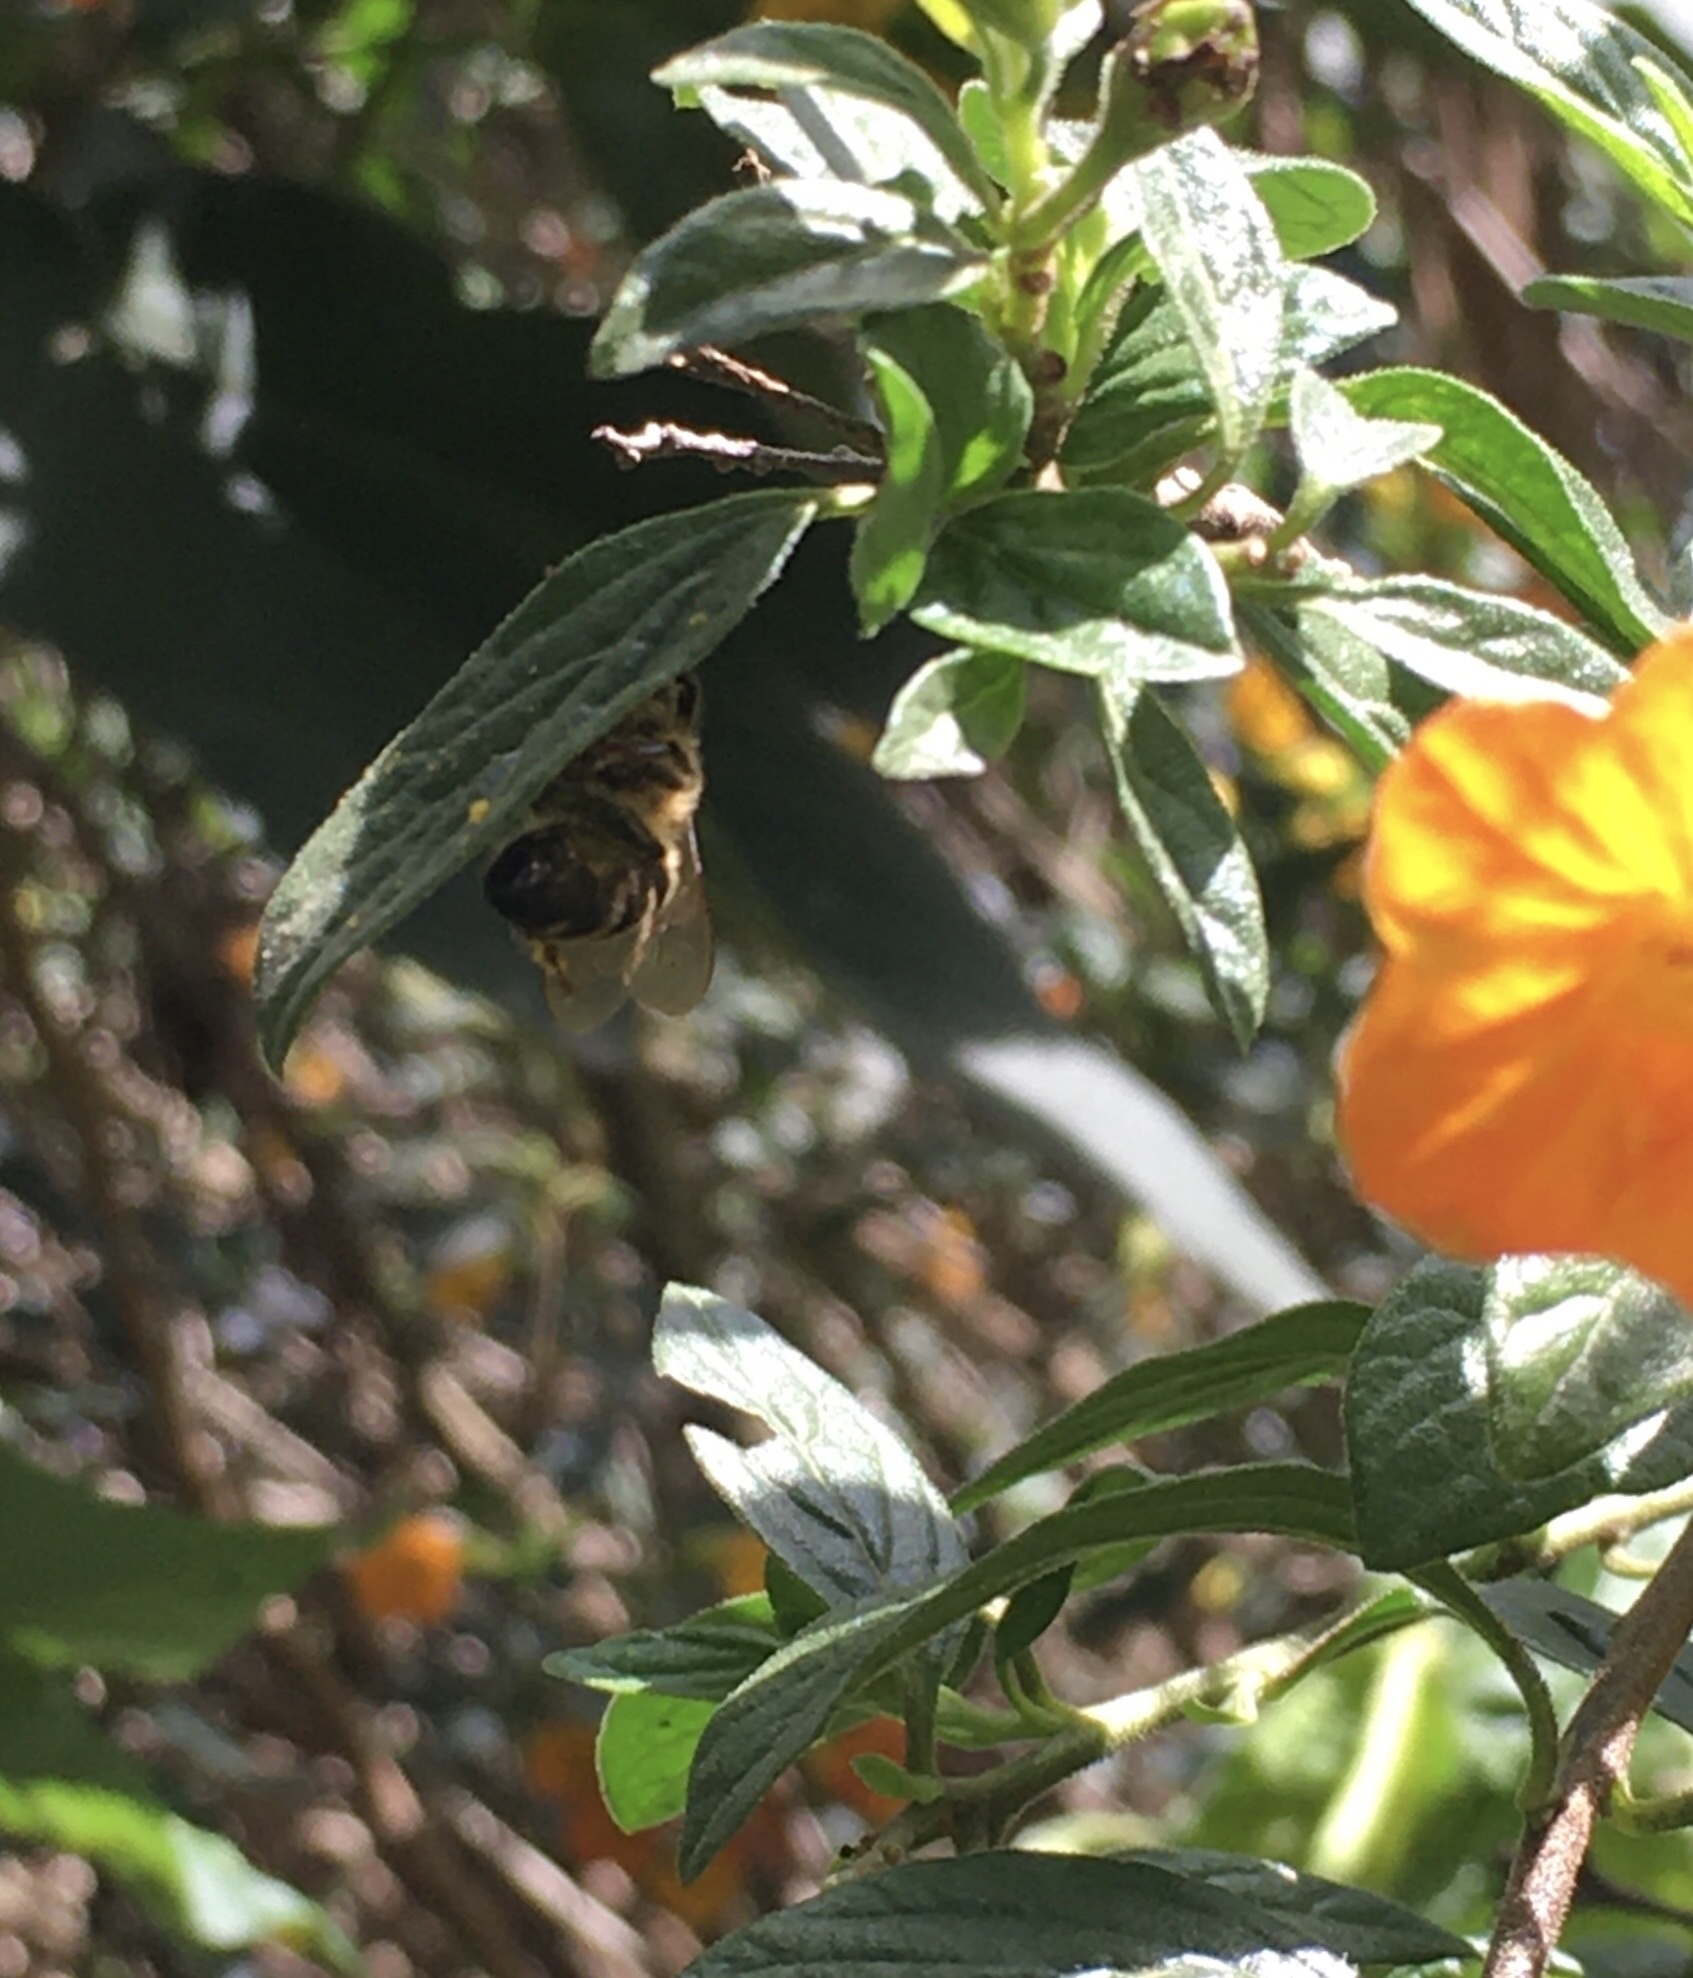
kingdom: Animalia
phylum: Arthropoda
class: Insecta
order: Hymenoptera
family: Apidae
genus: Apis
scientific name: Apis mellifera
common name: Honey bee
